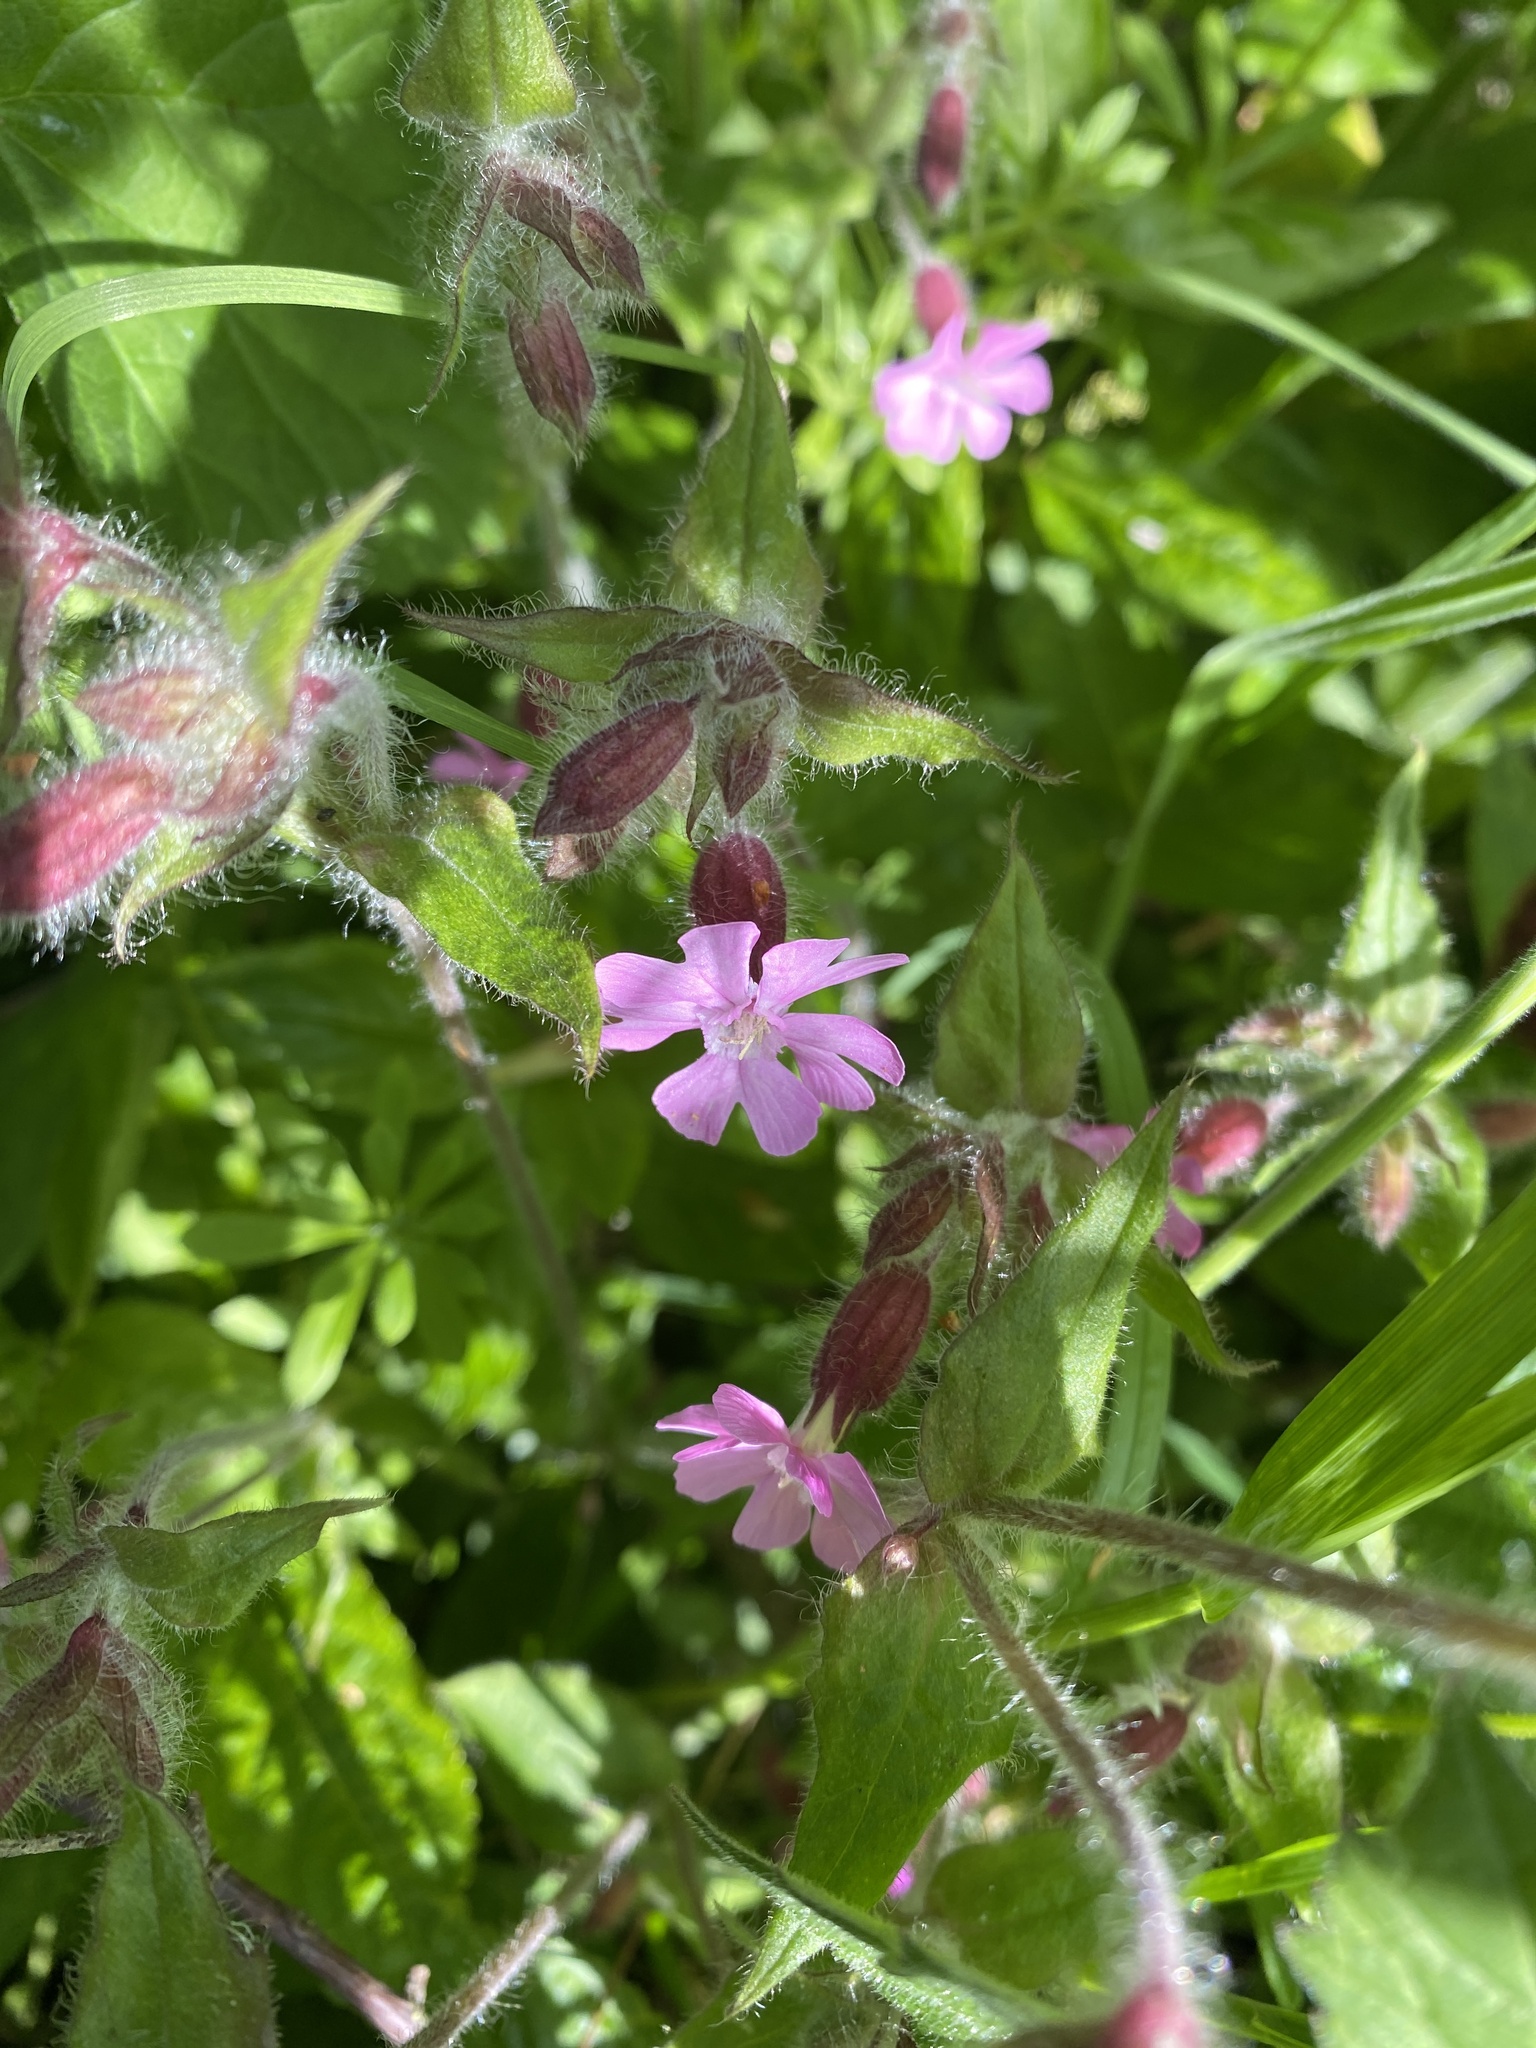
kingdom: Plantae
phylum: Tracheophyta
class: Magnoliopsida
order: Caryophyllales
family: Caryophyllaceae
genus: Silene
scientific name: Silene dioica
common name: Red campion
